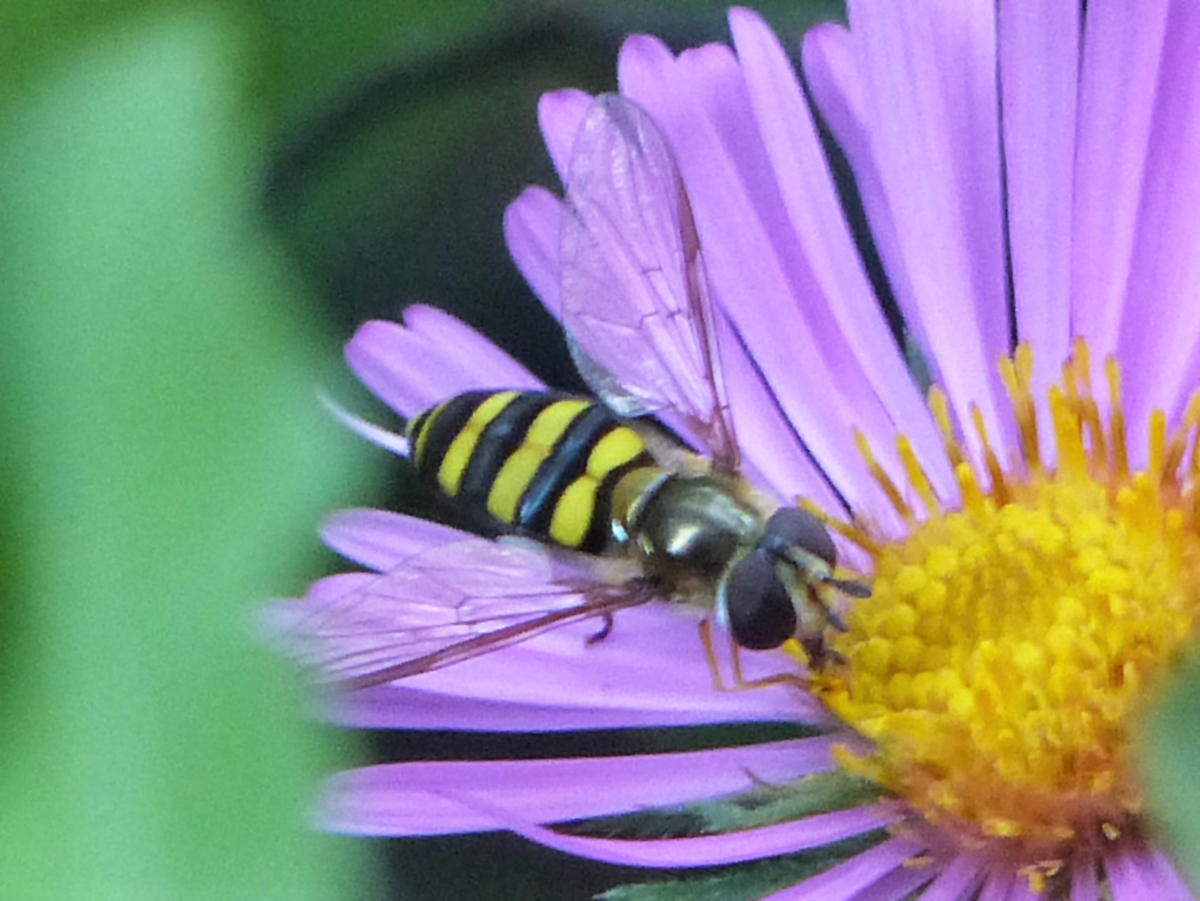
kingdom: Animalia
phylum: Arthropoda
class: Insecta
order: Diptera
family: Syrphidae
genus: Eupeodes
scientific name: Eupeodes
